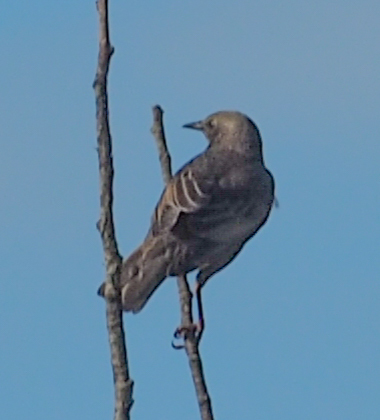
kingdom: Animalia
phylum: Chordata
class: Aves
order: Passeriformes
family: Sturnidae
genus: Sturnus
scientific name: Sturnus vulgaris
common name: Common starling
